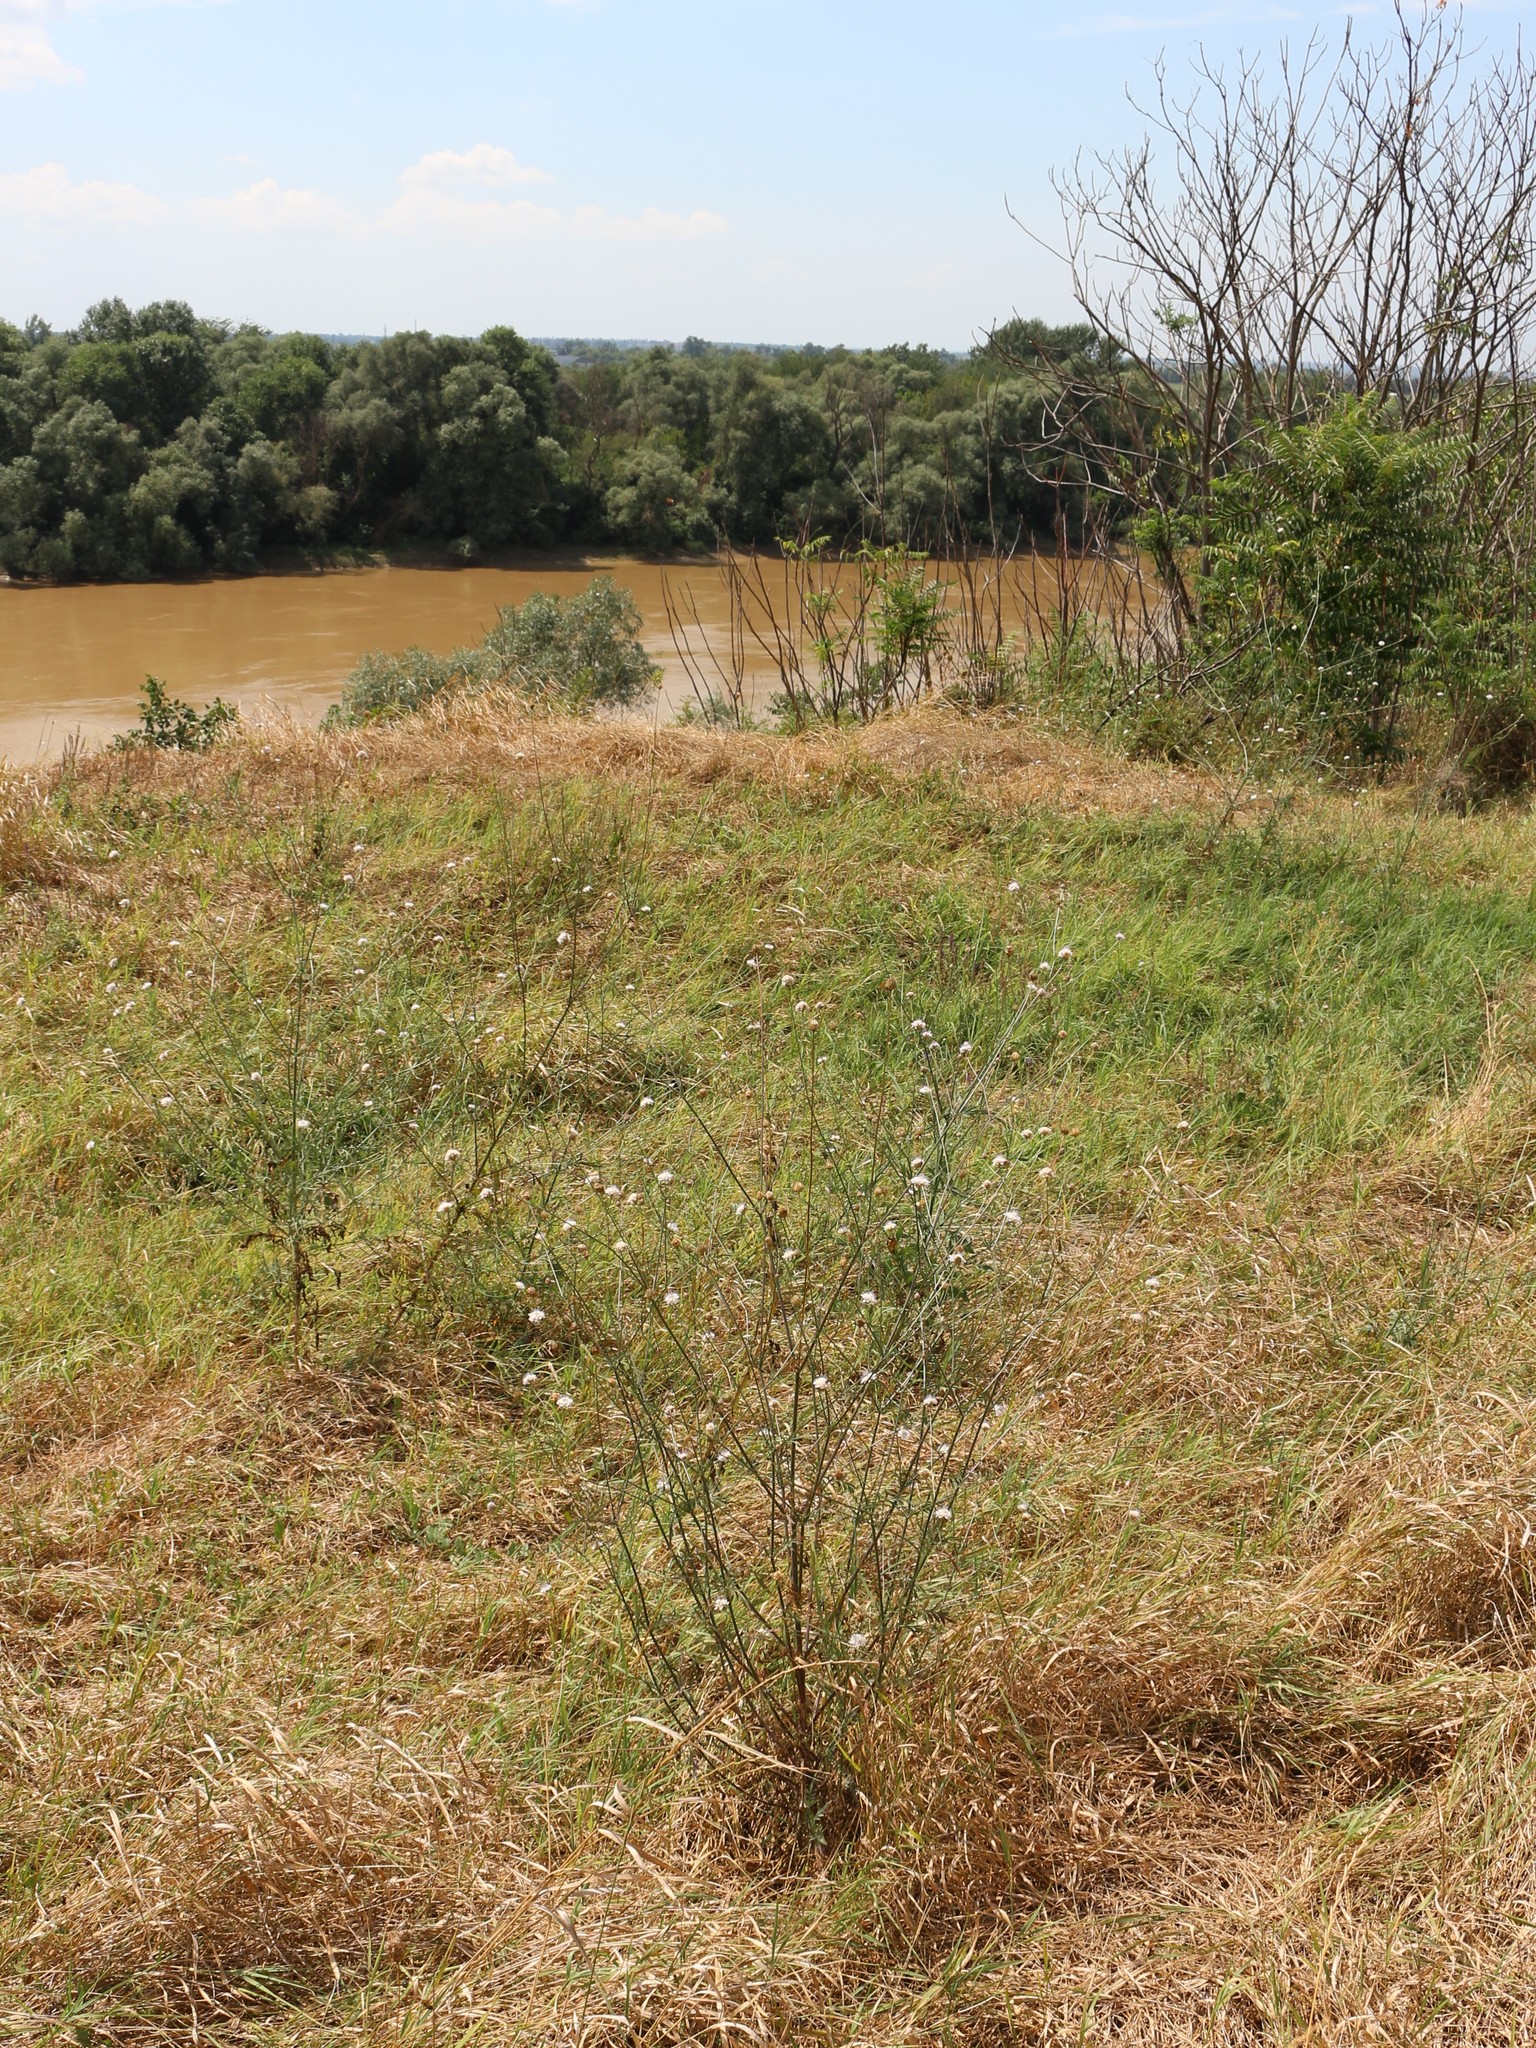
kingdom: Plantae
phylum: Tracheophyta
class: Magnoliopsida
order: Dipsacales
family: Caprifoliaceae
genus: Cephalaria
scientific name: Cephalaria transsylvanica
